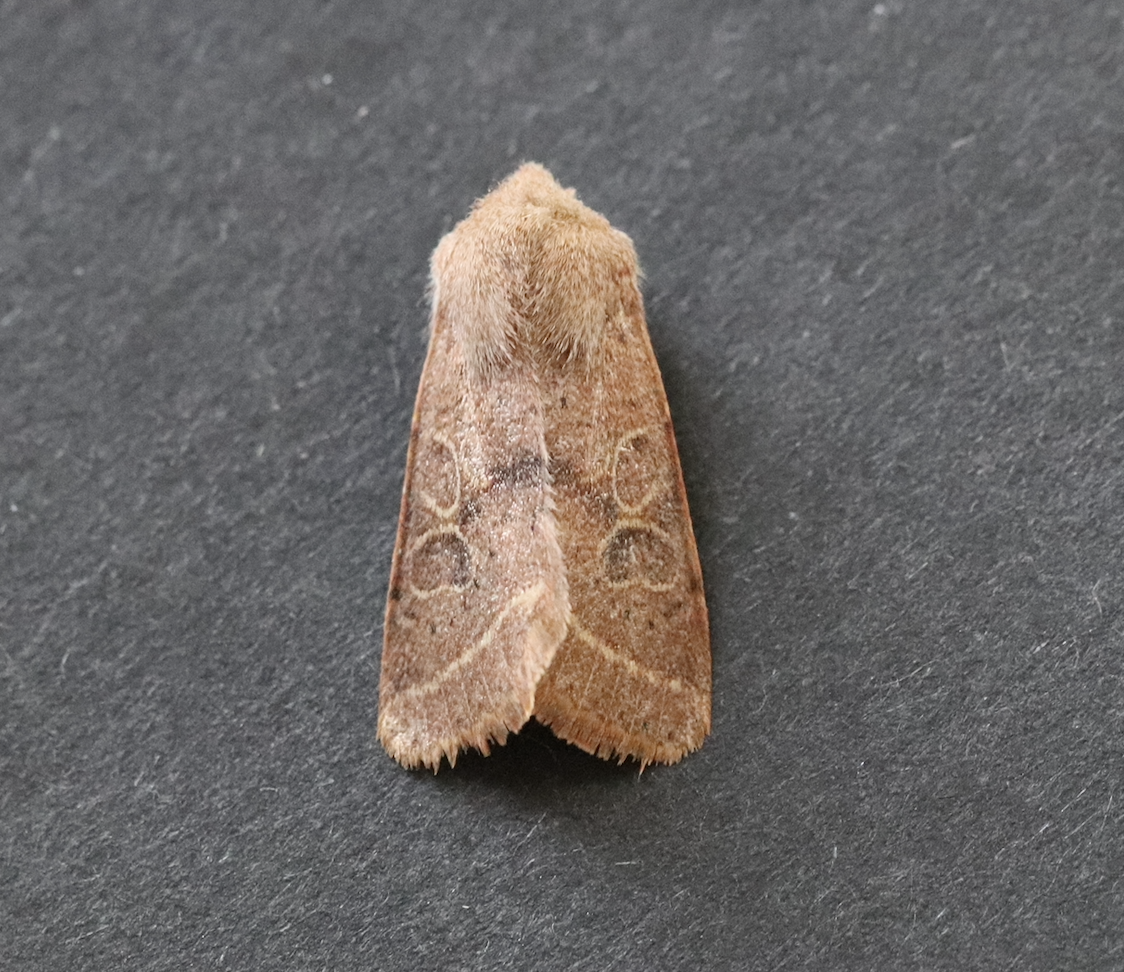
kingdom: Animalia
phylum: Arthropoda
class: Insecta
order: Lepidoptera
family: Noctuidae
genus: Orthosia
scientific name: Orthosia cerasi
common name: Common quaker
